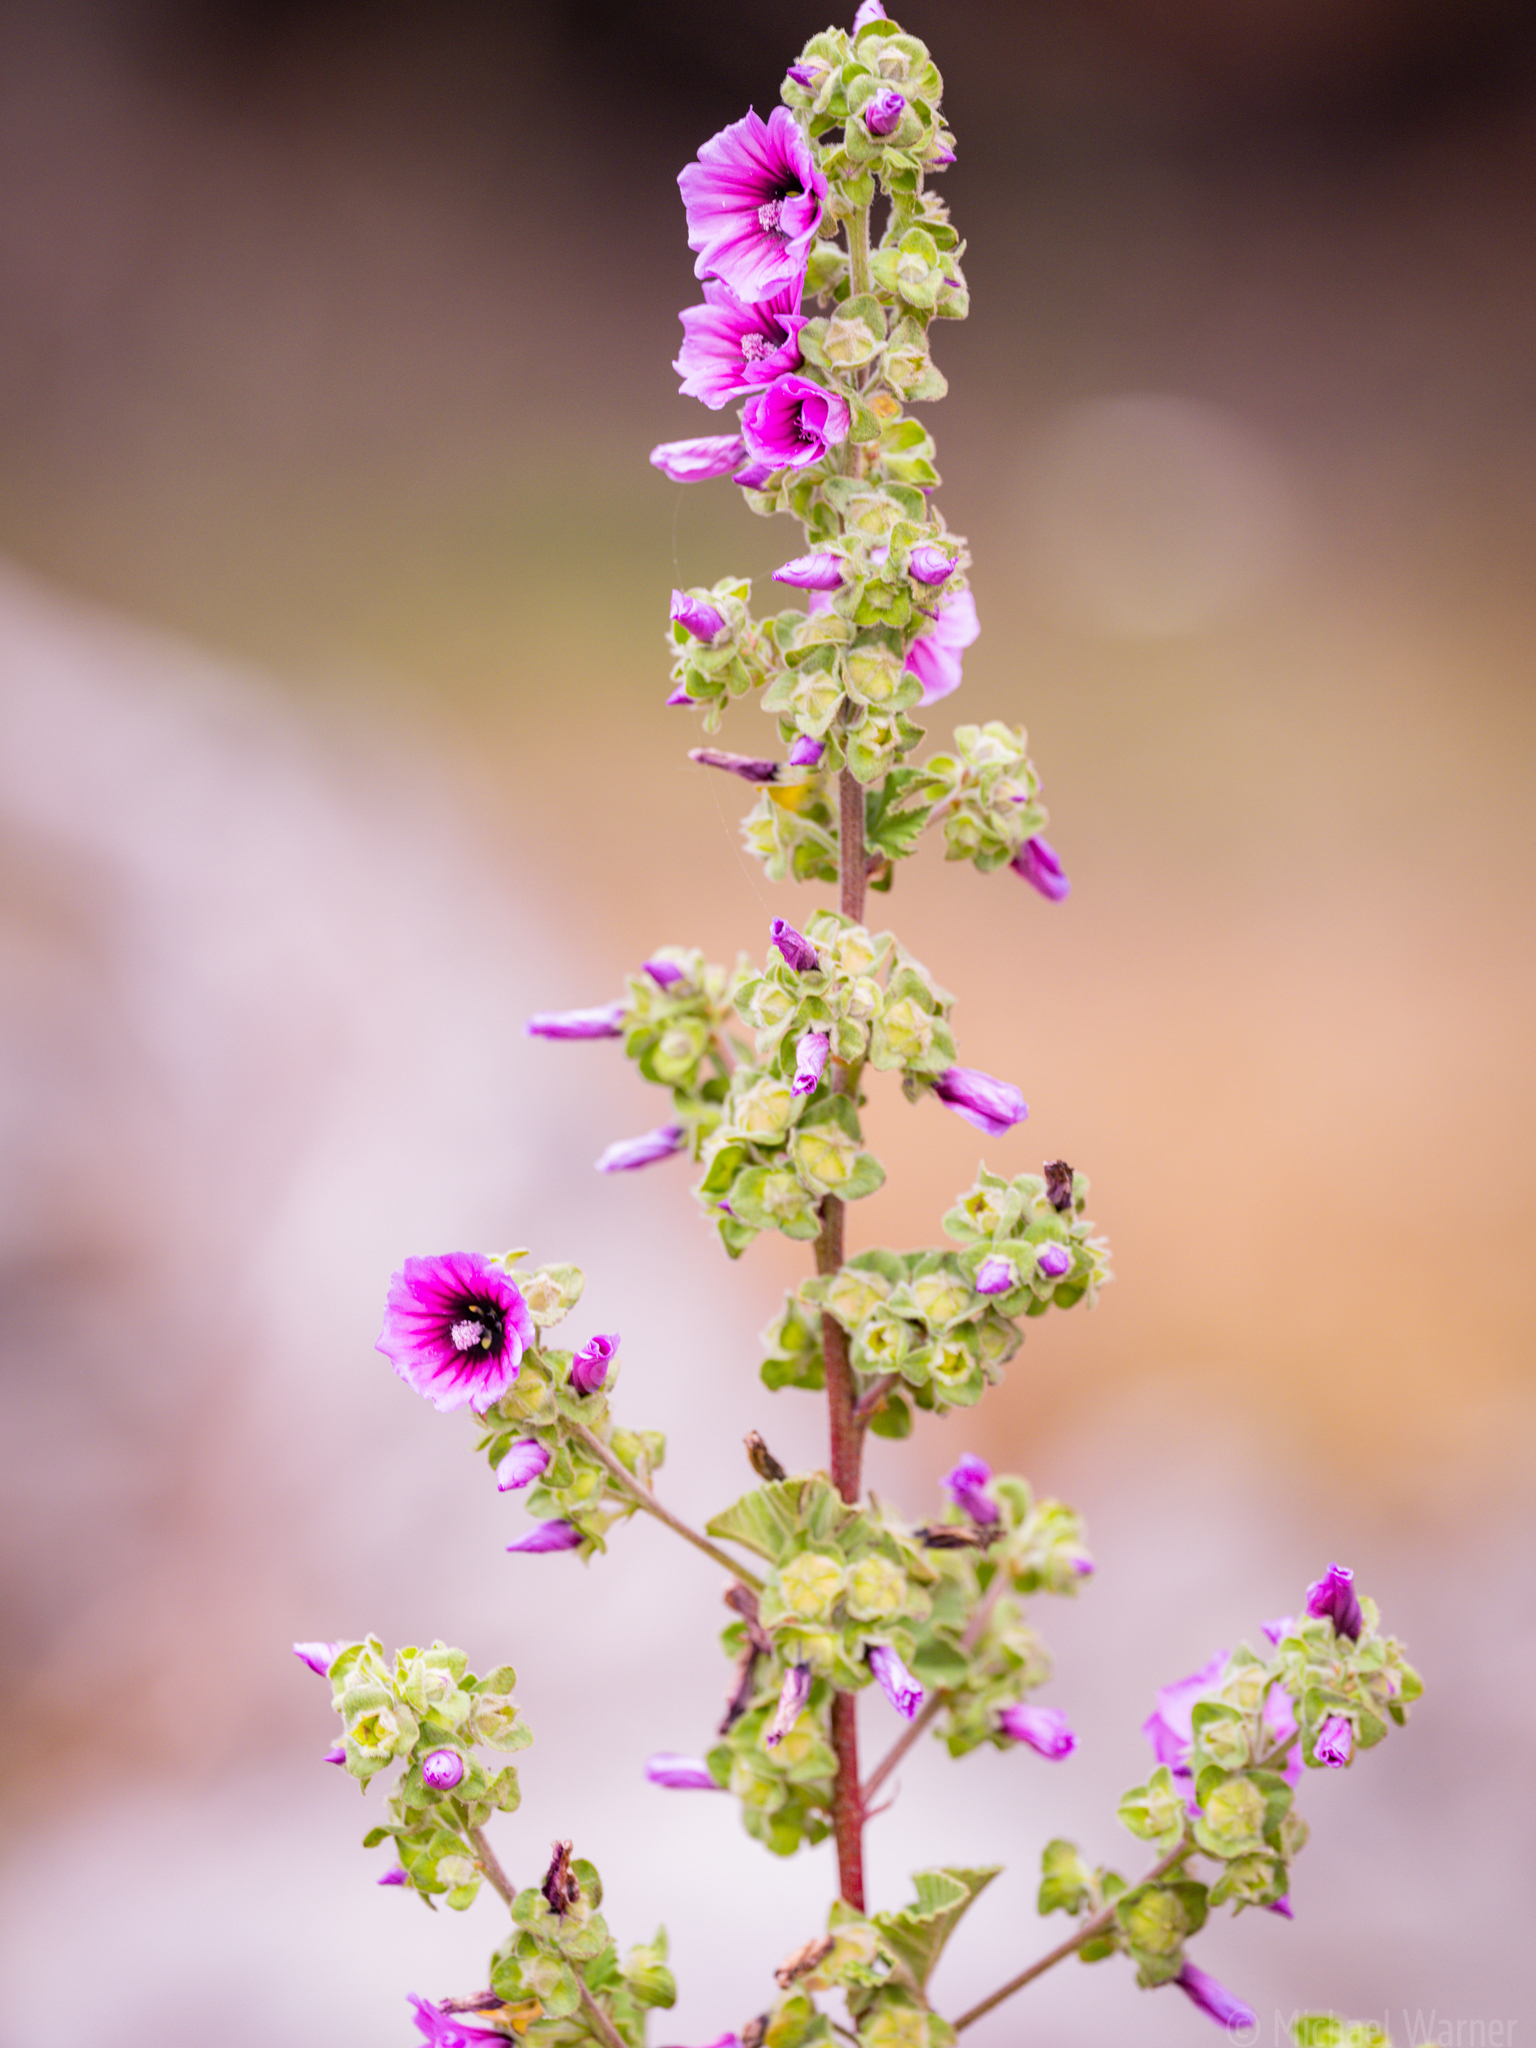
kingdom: Plantae
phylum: Tracheophyta
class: Magnoliopsida
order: Malvales
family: Malvaceae
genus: Malva
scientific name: Malva arborea
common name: Tree mallow
